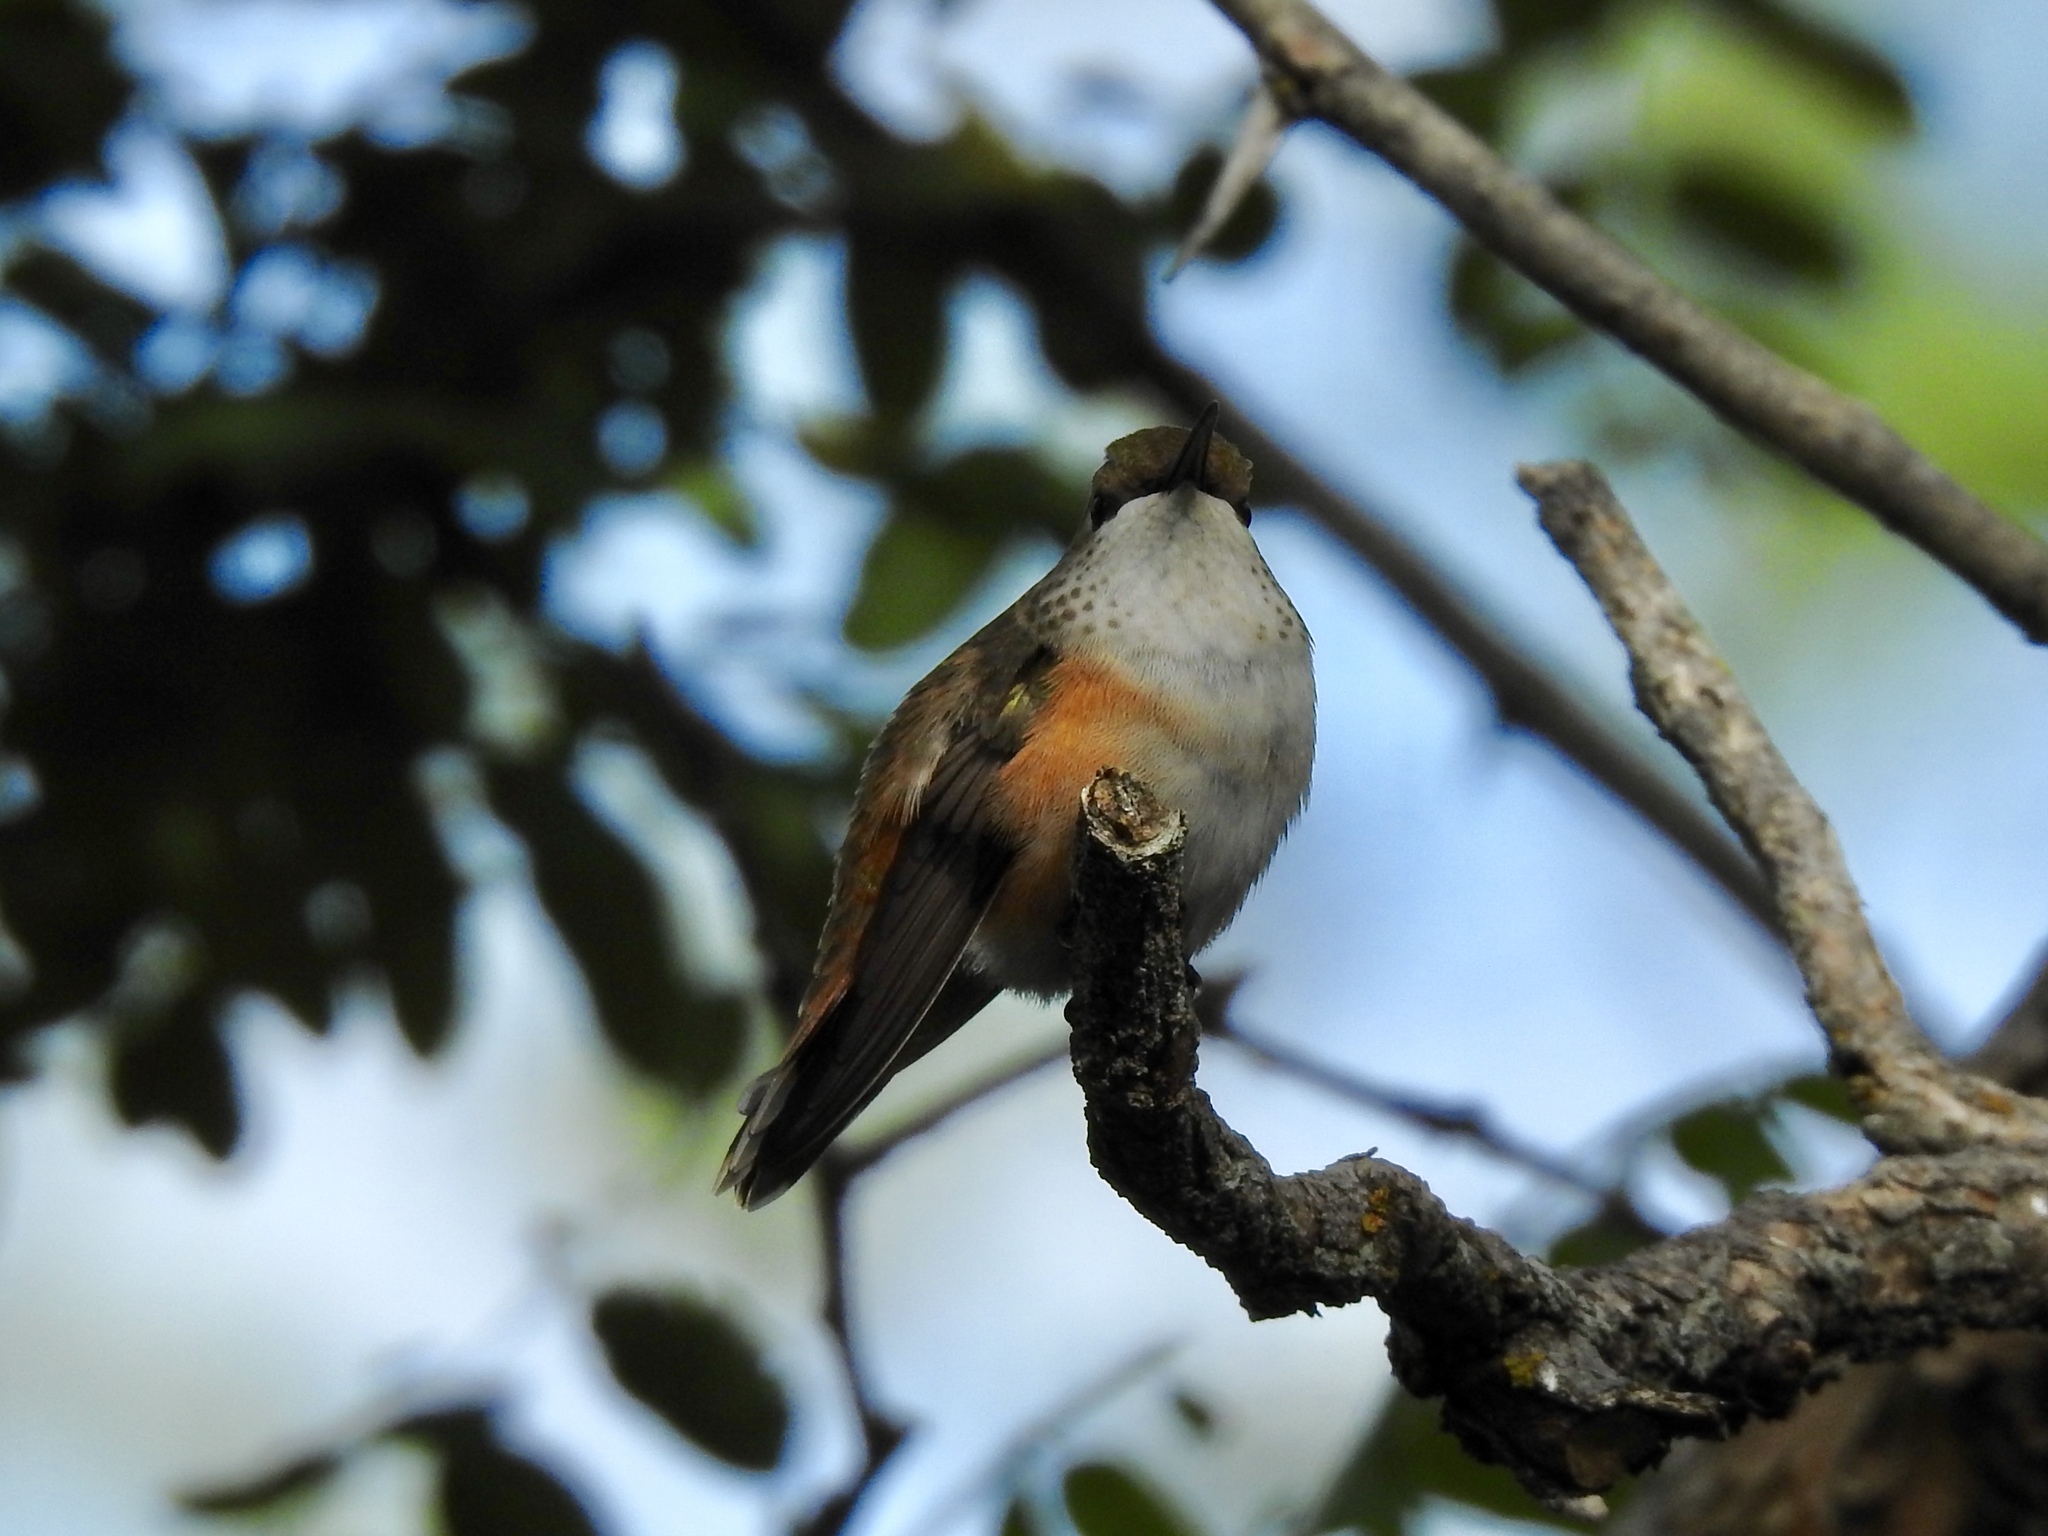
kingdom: Animalia
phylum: Chordata
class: Aves
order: Apodiformes
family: Trochilidae
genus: Selasphorus
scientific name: Selasphorus rufus
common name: Rufous hummingbird
